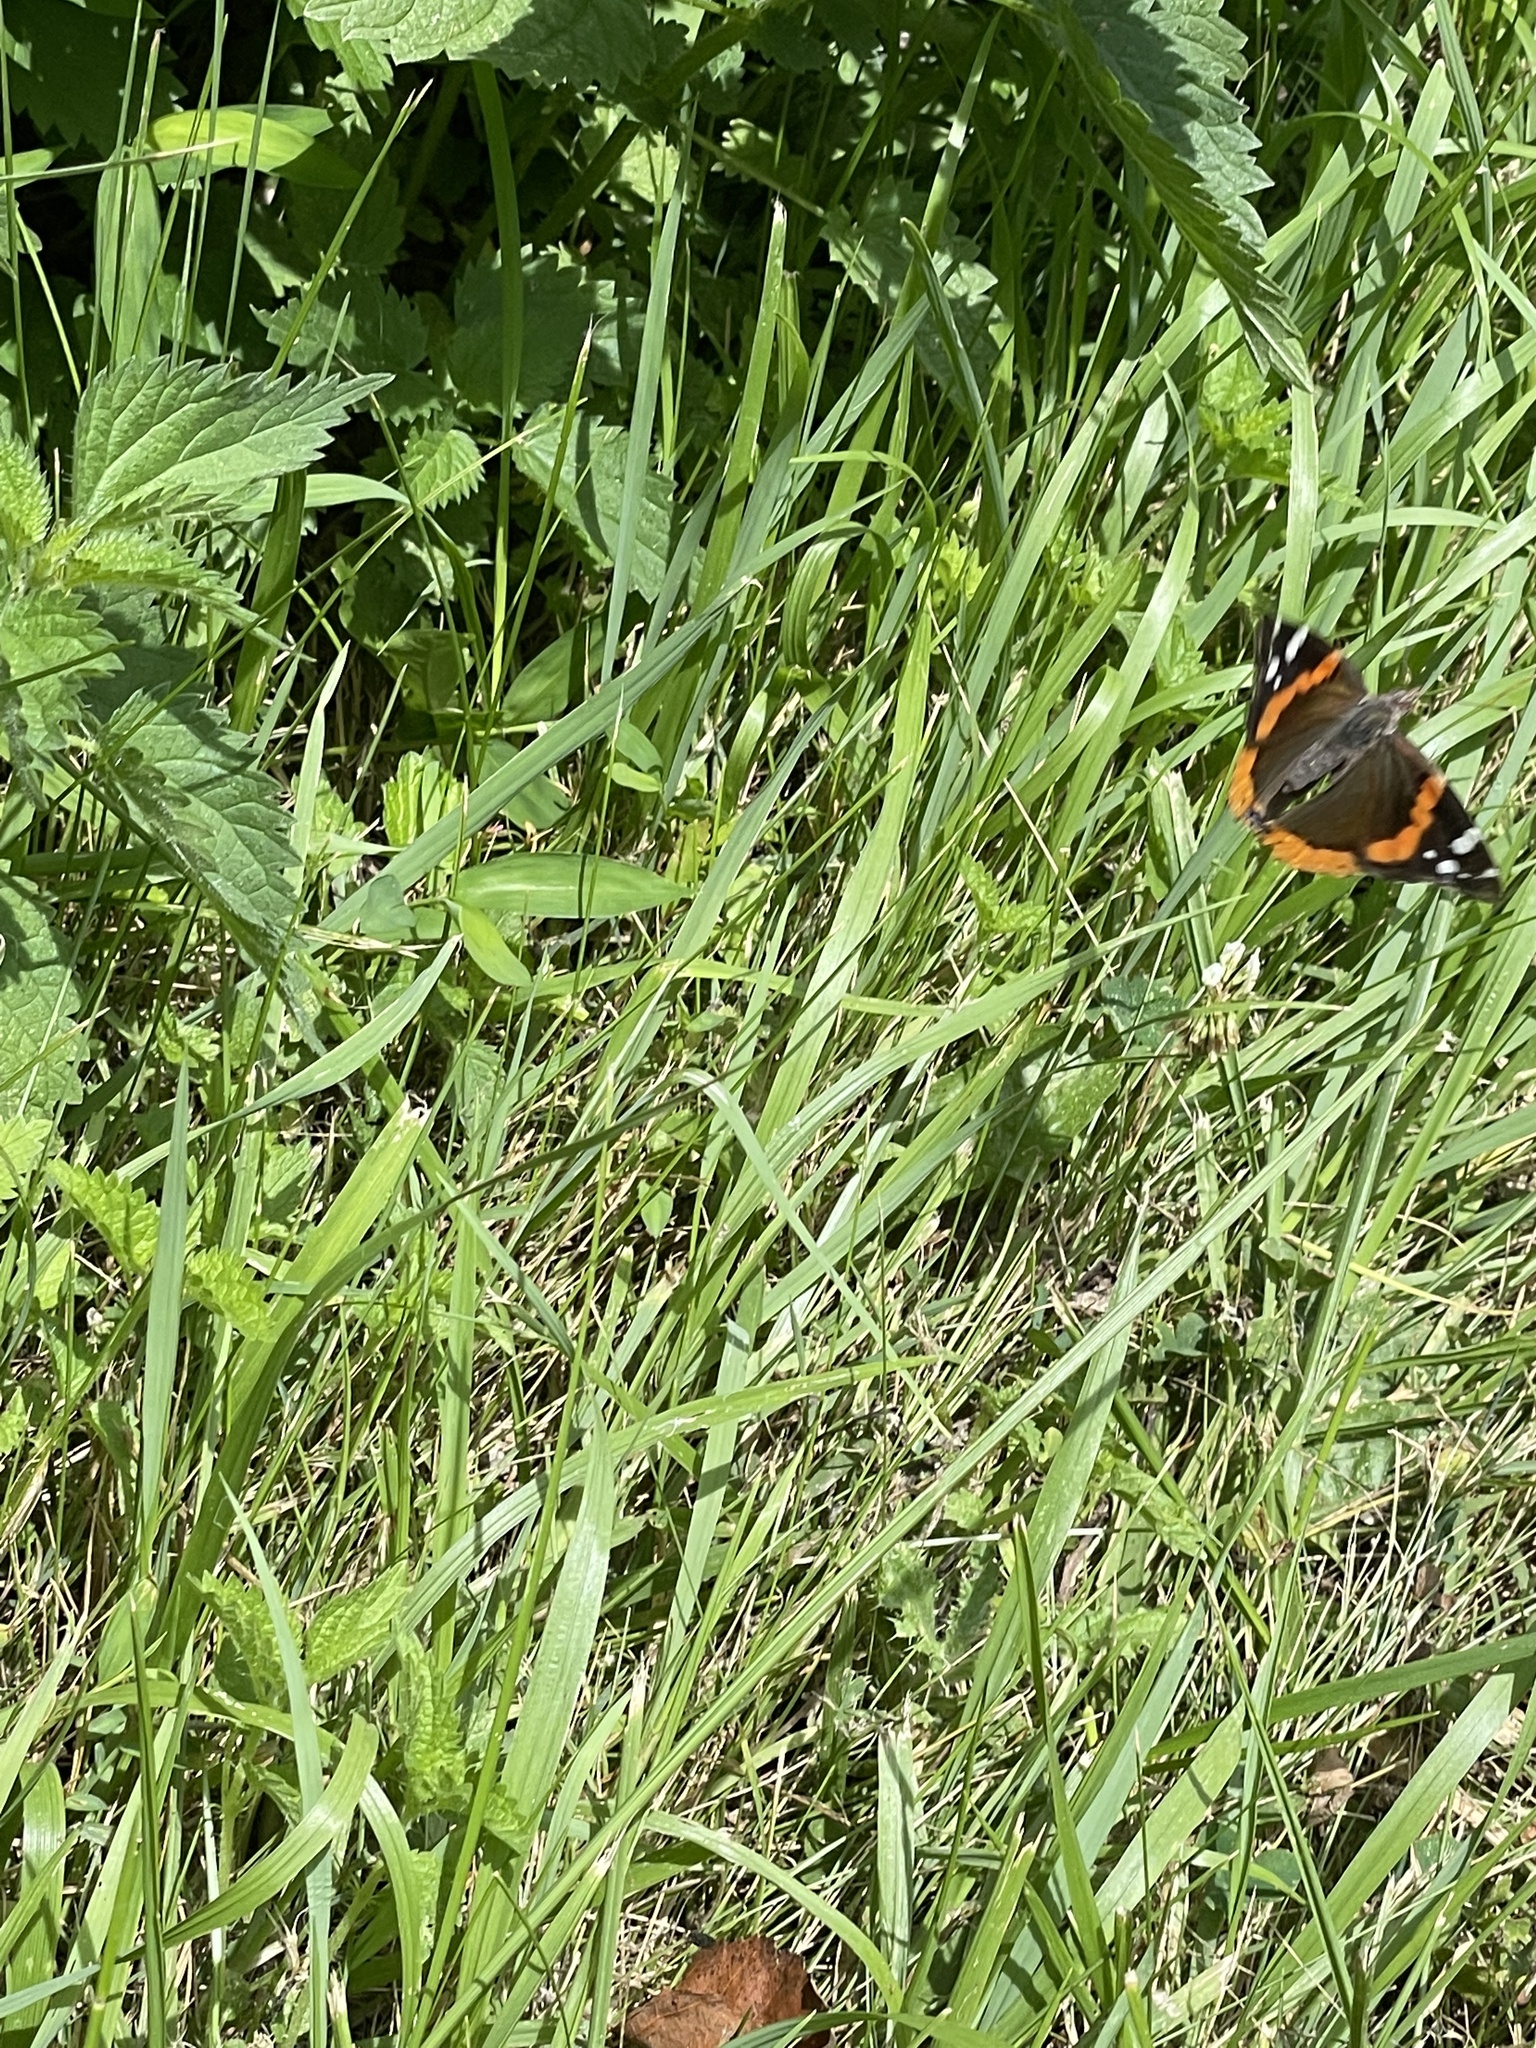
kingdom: Animalia
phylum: Arthropoda
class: Insecta
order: Lepidoptera
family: Nymphalidae
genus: Vanessa
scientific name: Vanessa atalanta
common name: Red admiral
